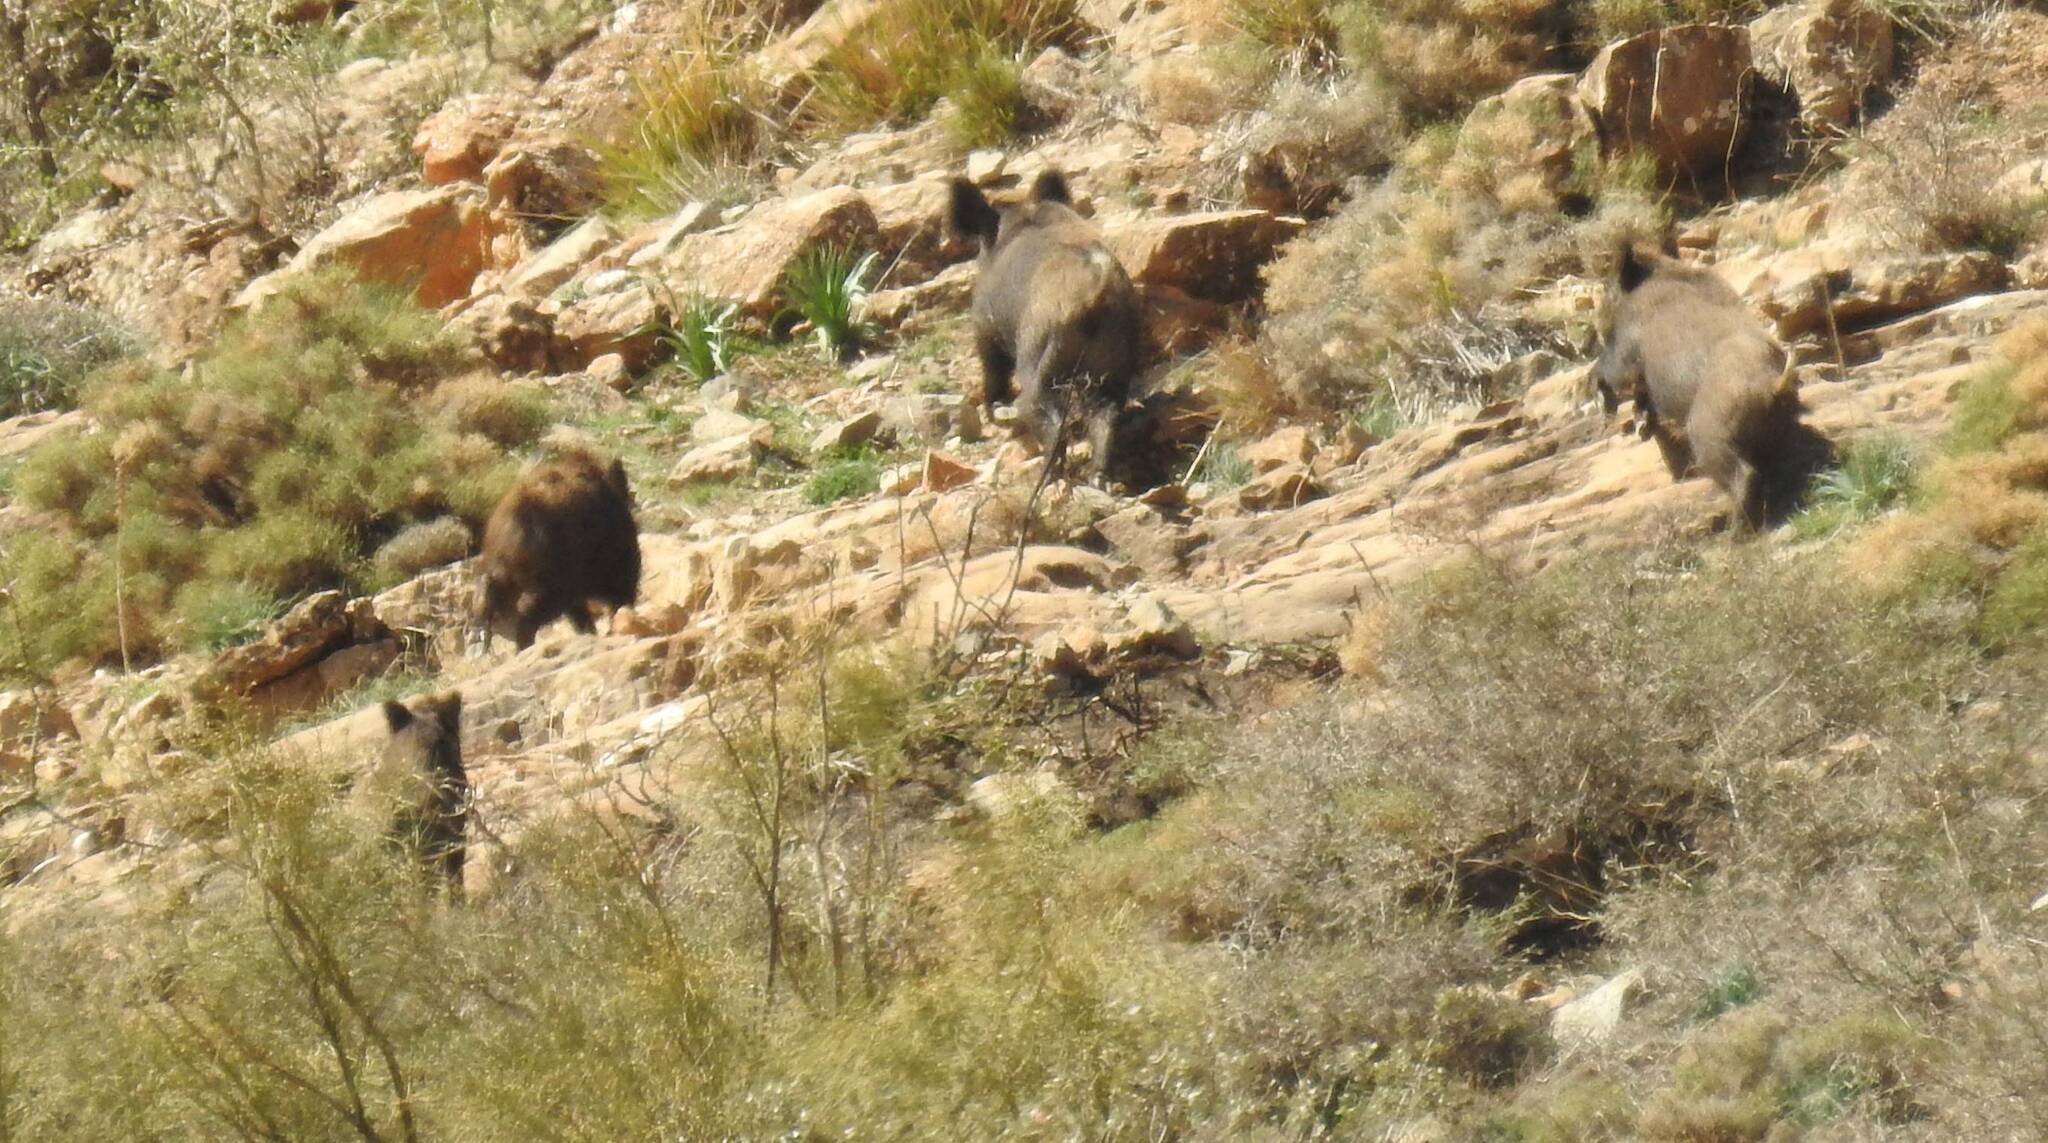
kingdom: Animalia
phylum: Chordata
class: Mammalia
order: Artiodactyla
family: Suidae
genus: Sus
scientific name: Sus scrofa
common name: Wild boar
